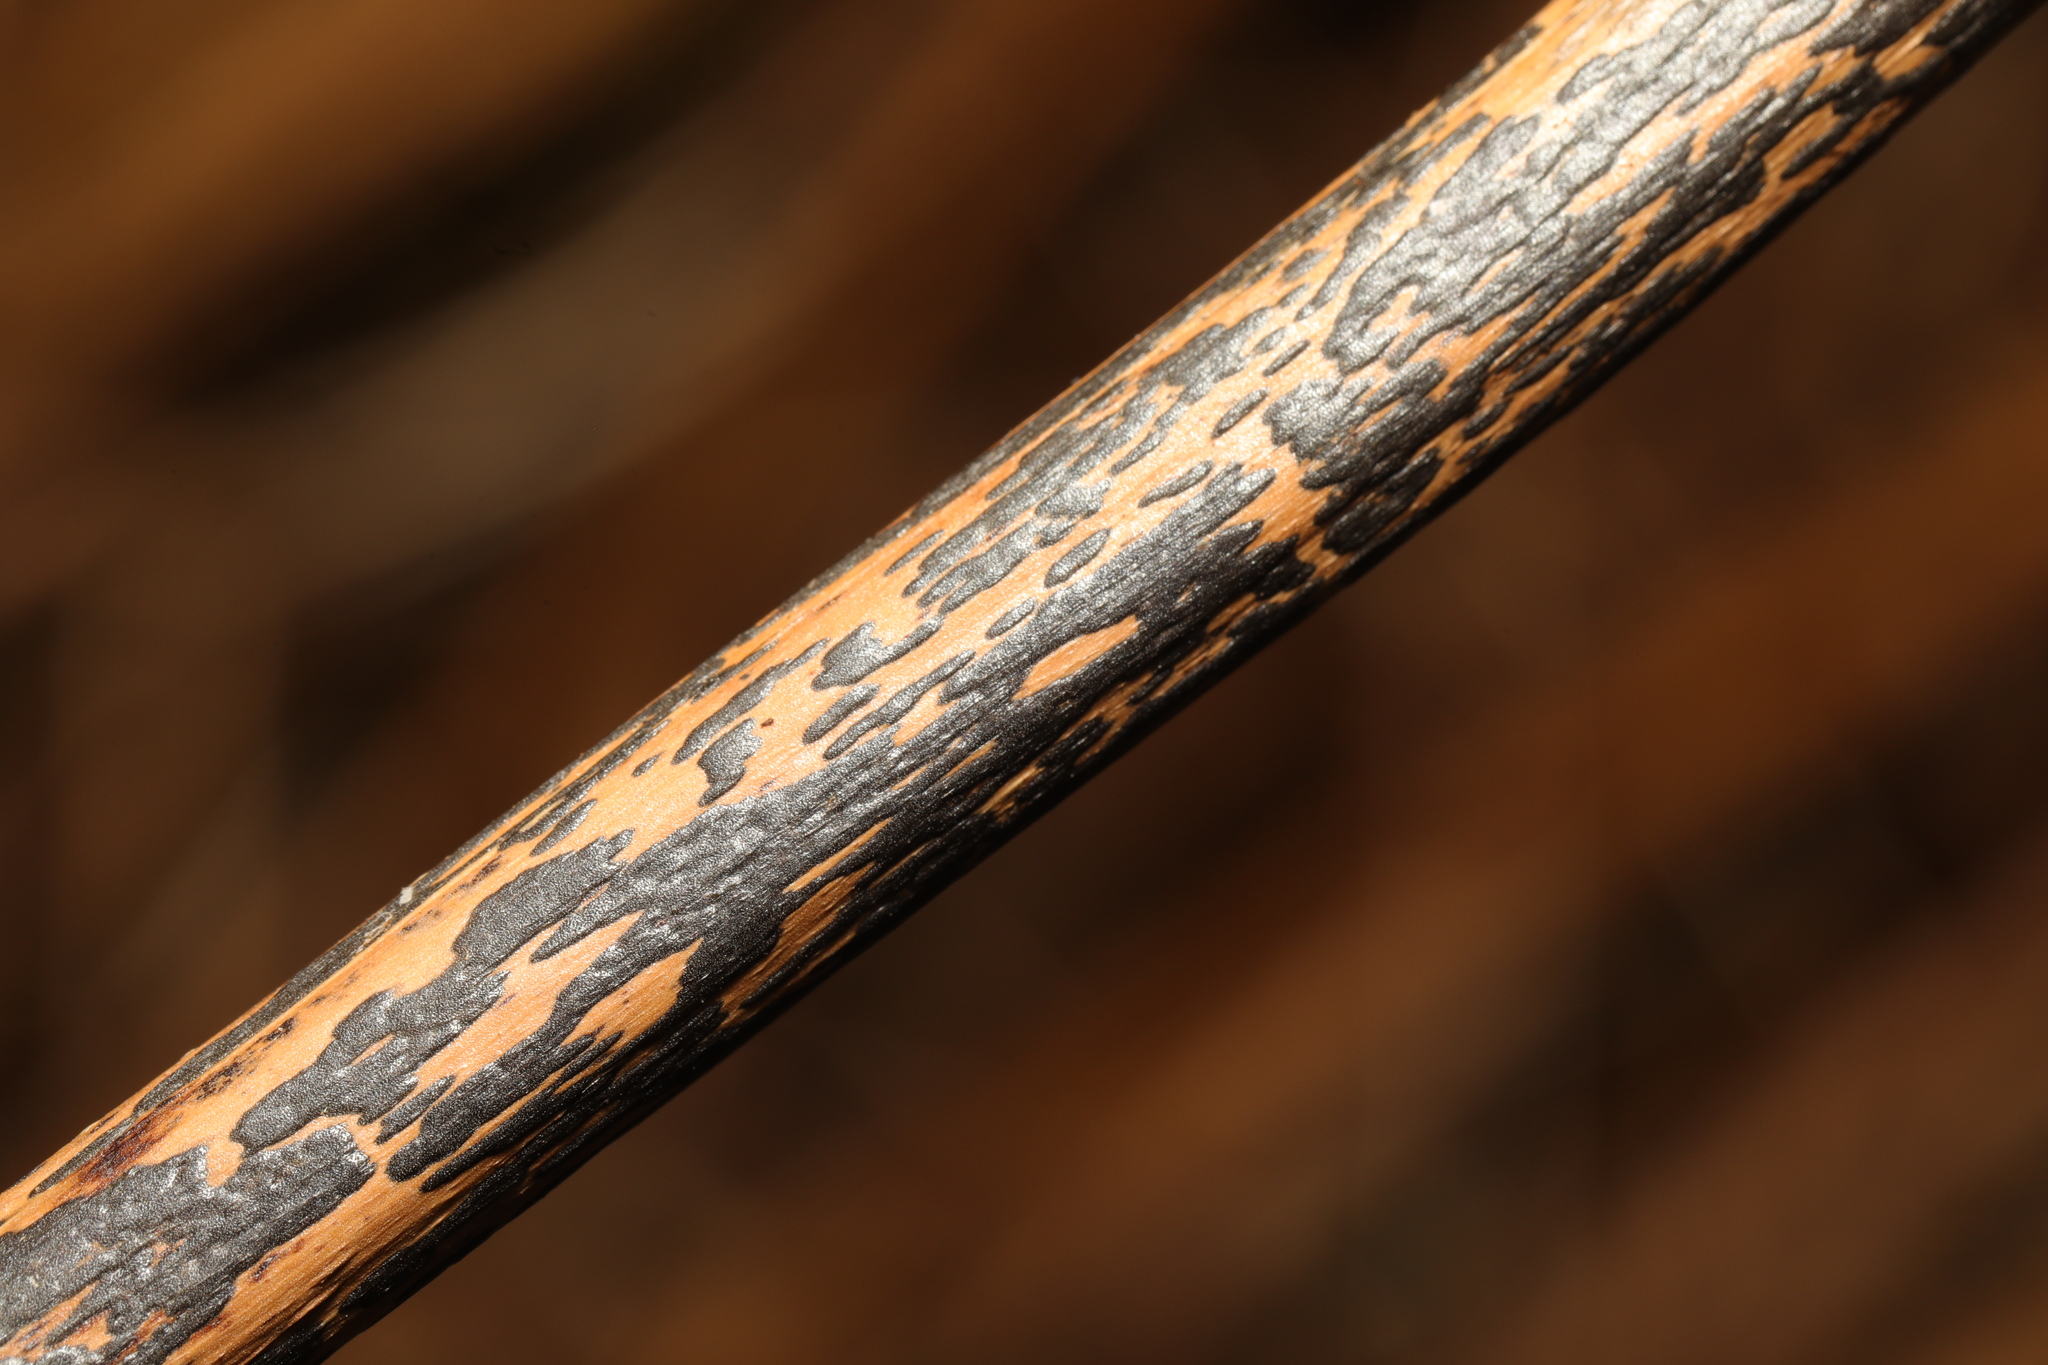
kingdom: Fungi
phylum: Ascomycota
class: Dothideomycetes
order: Pleosporales
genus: Rhopographus
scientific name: Rhopographus filicinus
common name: Bracken map
